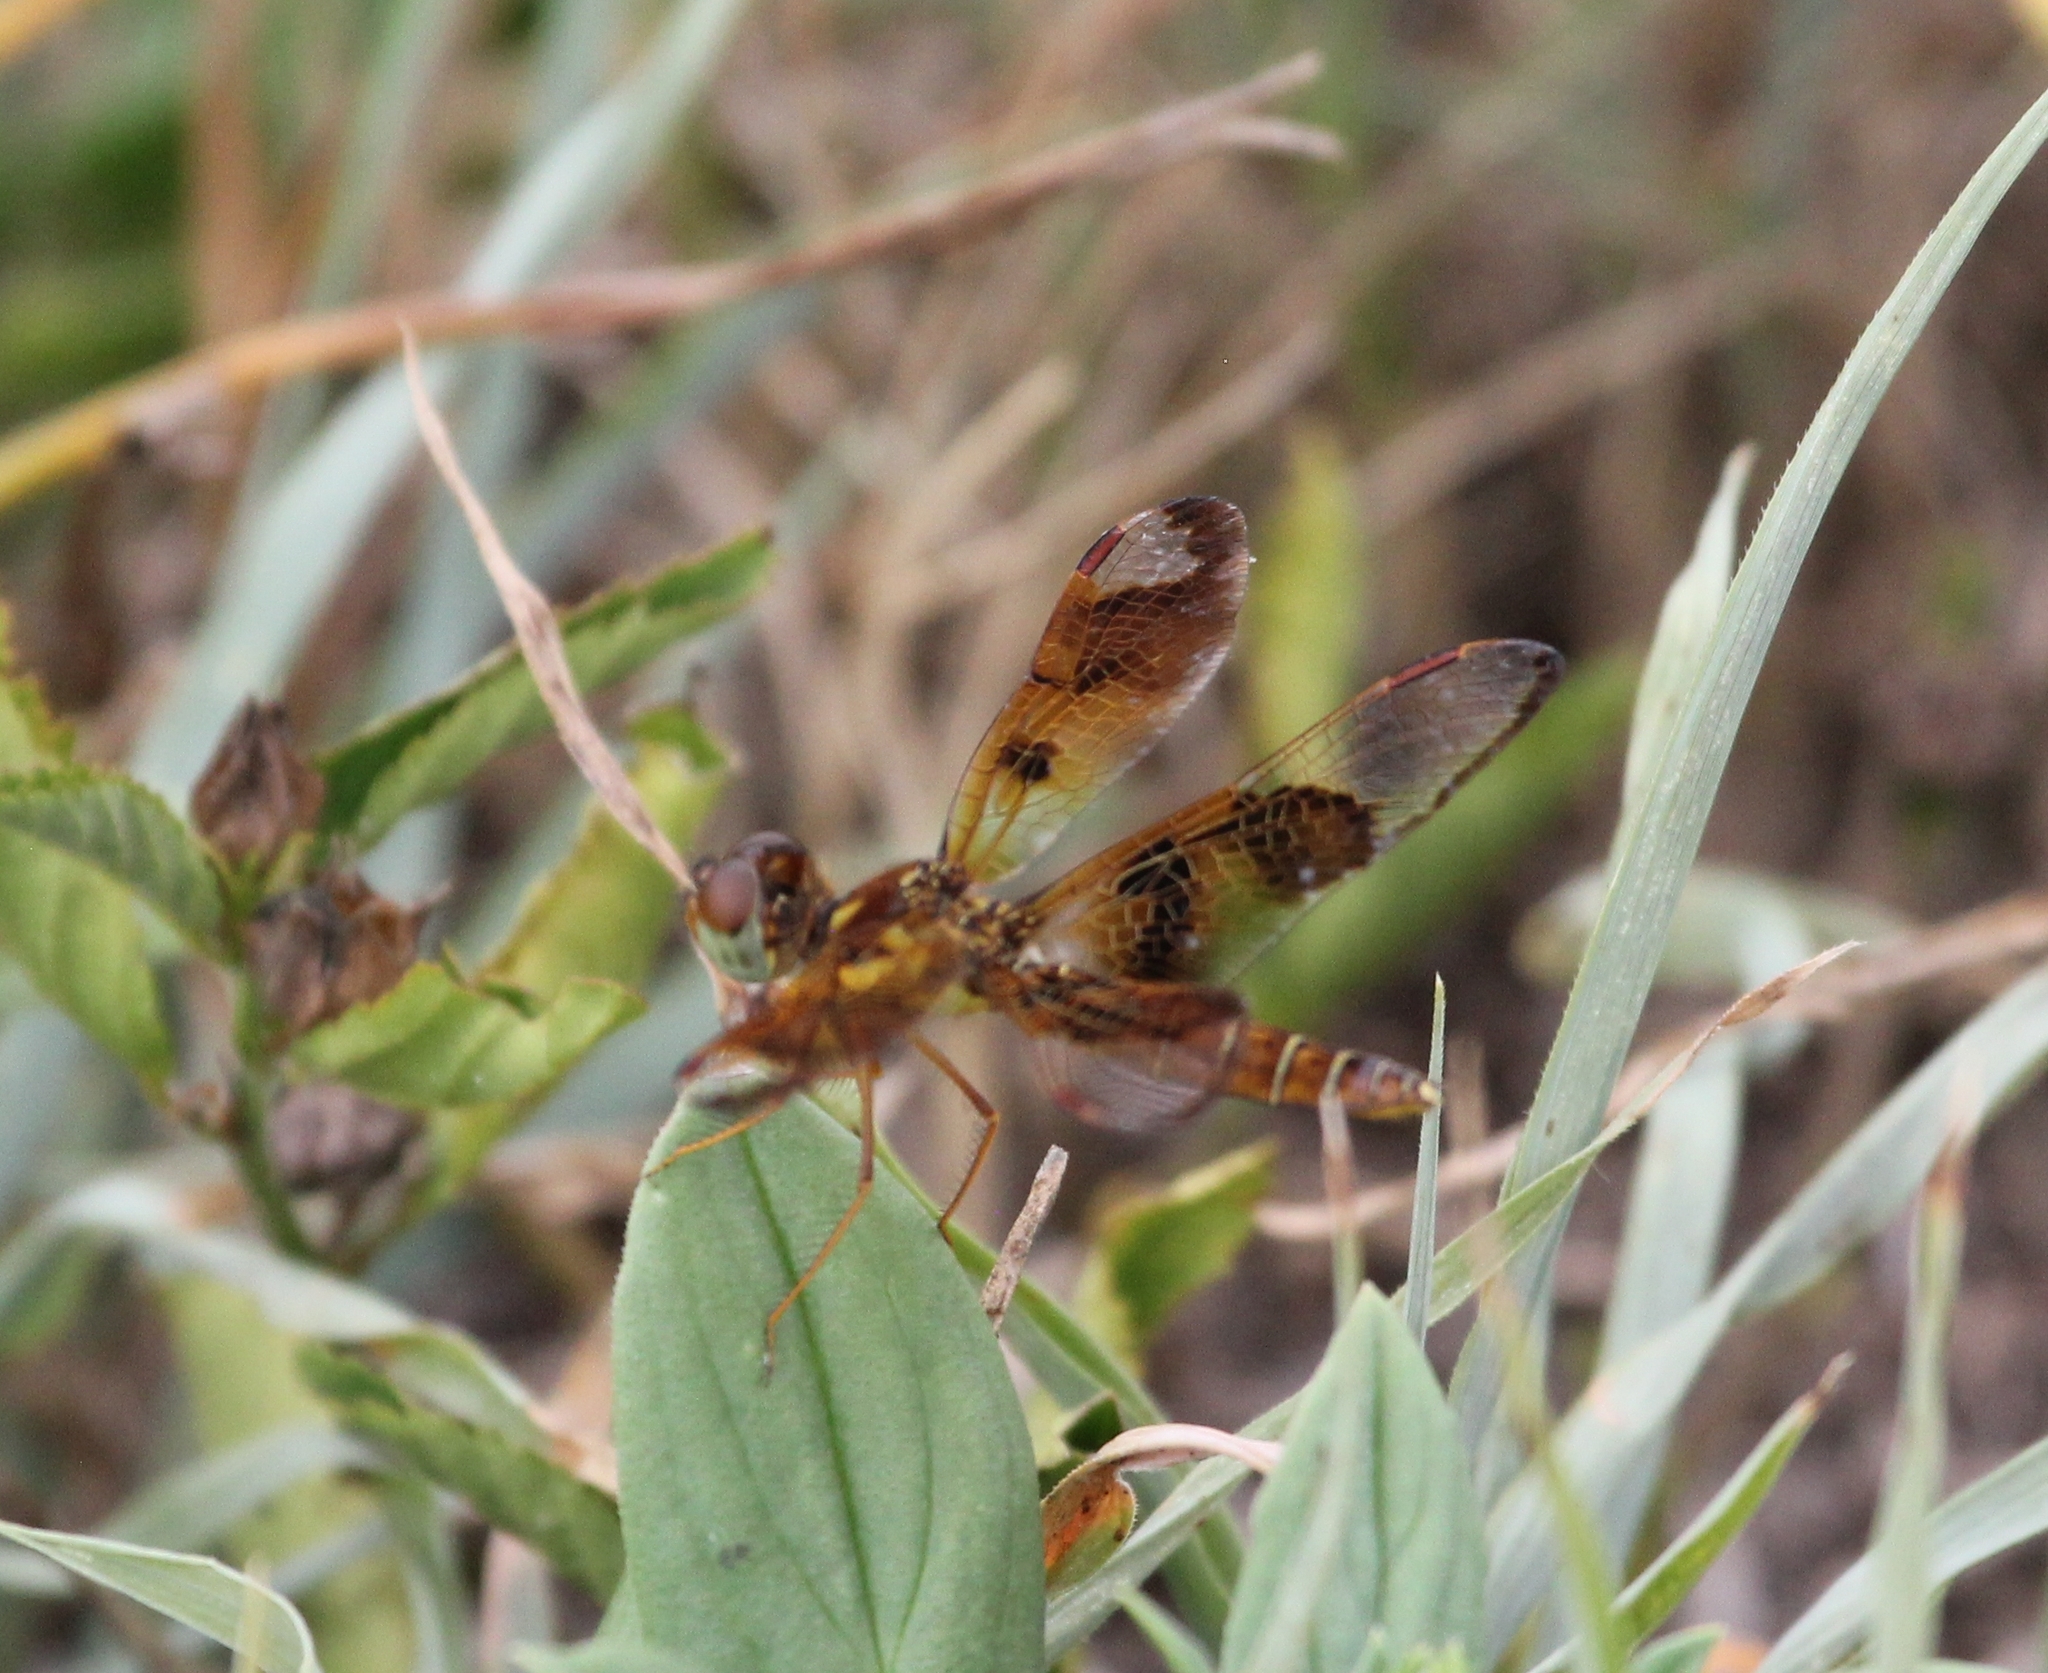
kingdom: Animalia
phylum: Arthropoda
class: Insecta
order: Odonata
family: Libellulidae
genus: Perithemis
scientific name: Perithemis tenera
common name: Eastern amberwing
